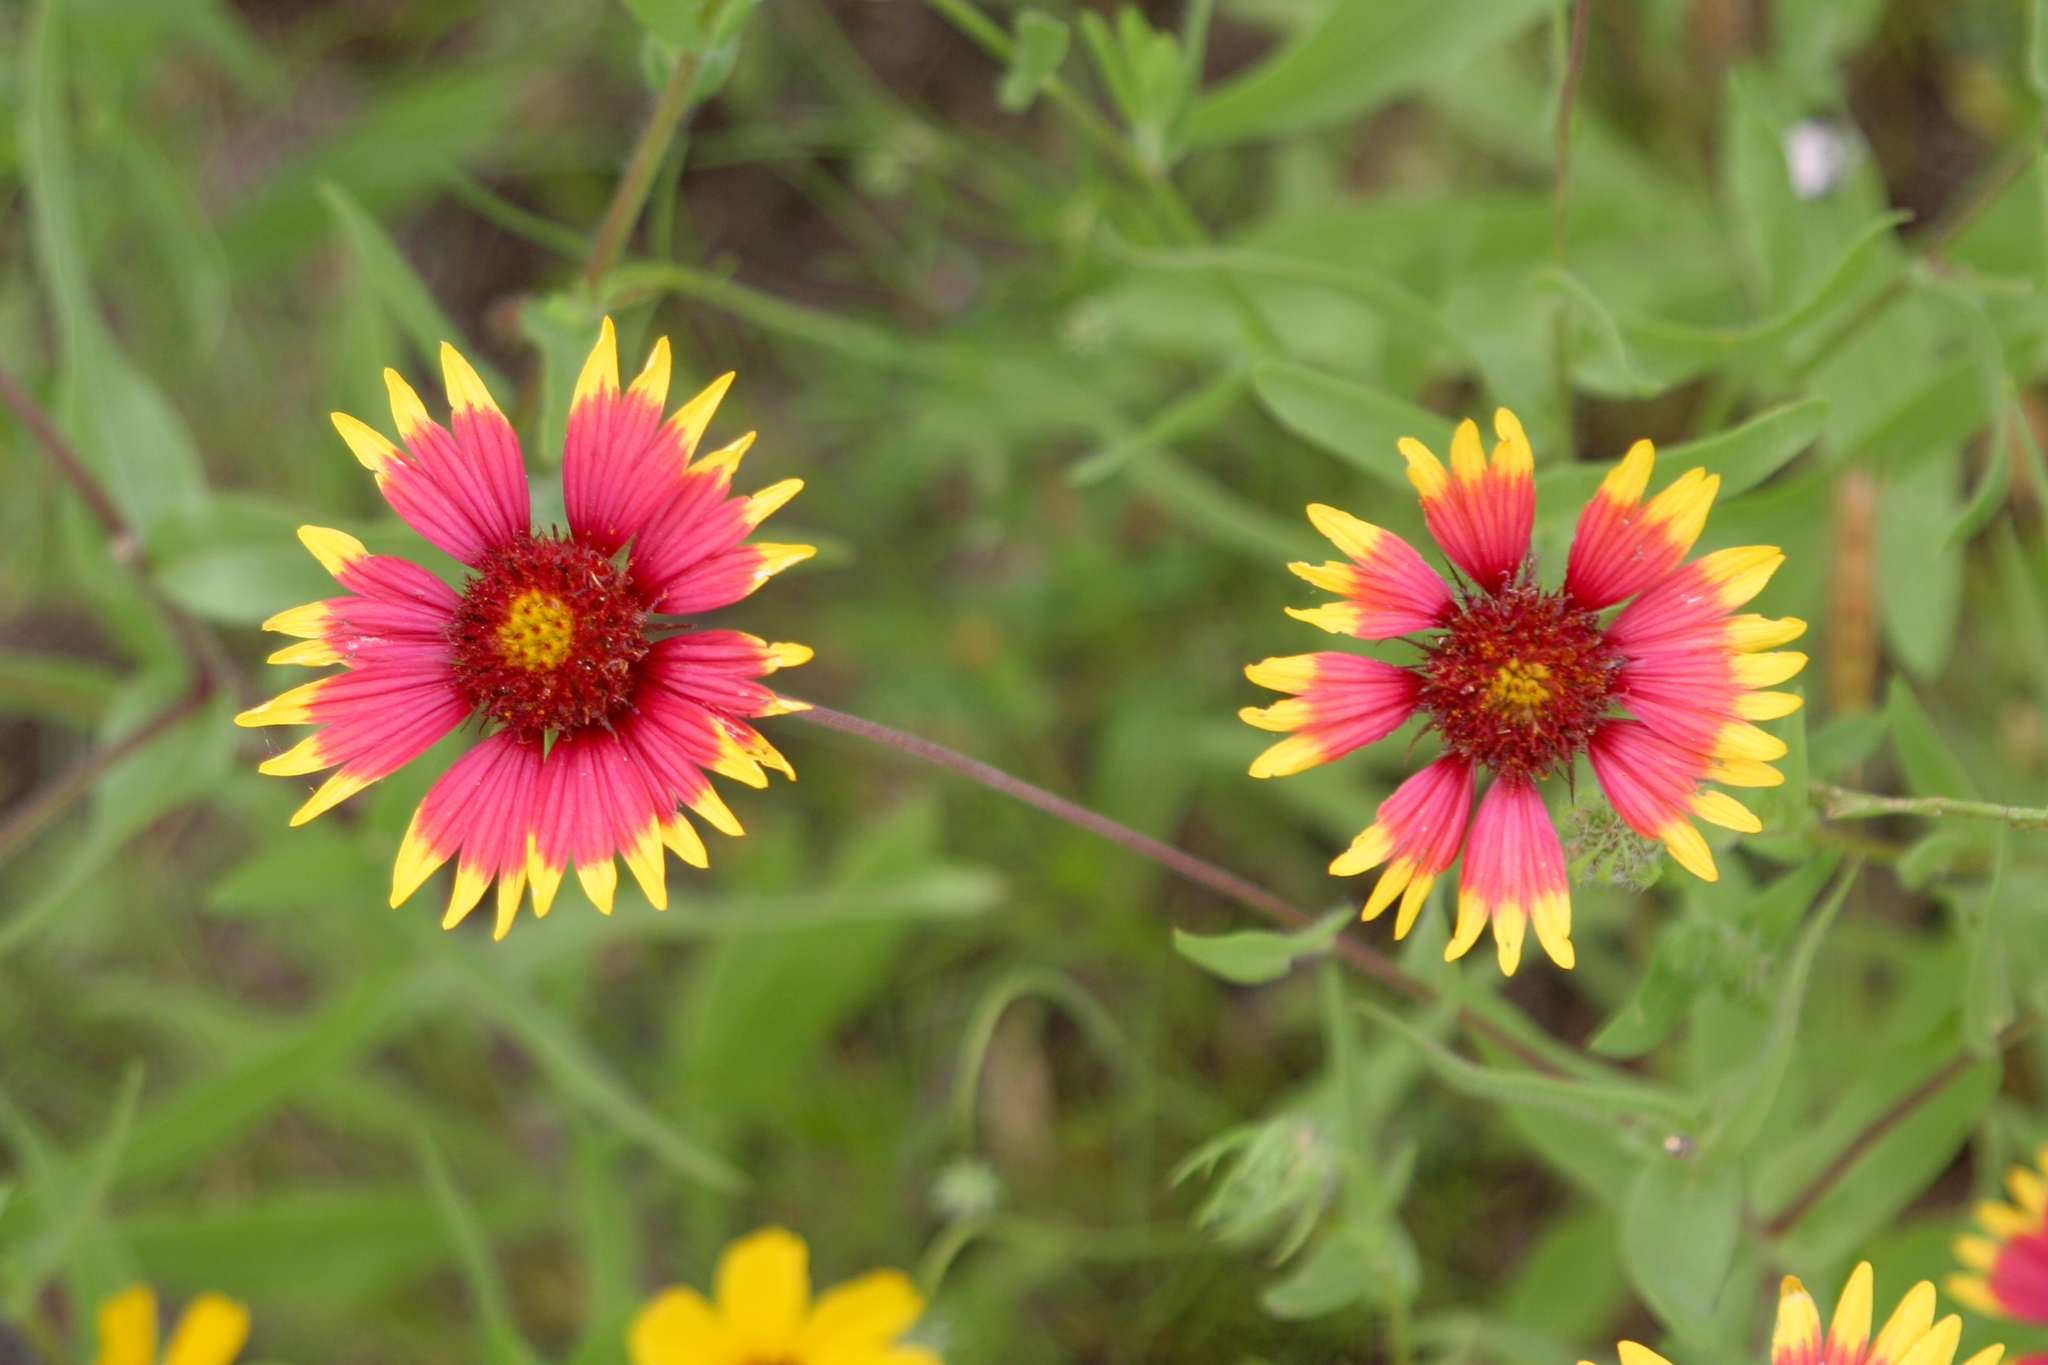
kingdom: Plantae
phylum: Tracheophyta
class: Magnoliopsida
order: Asterales
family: Asteraceae
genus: Gaillardia
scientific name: Gaillardia pulchella
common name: Firewheel
